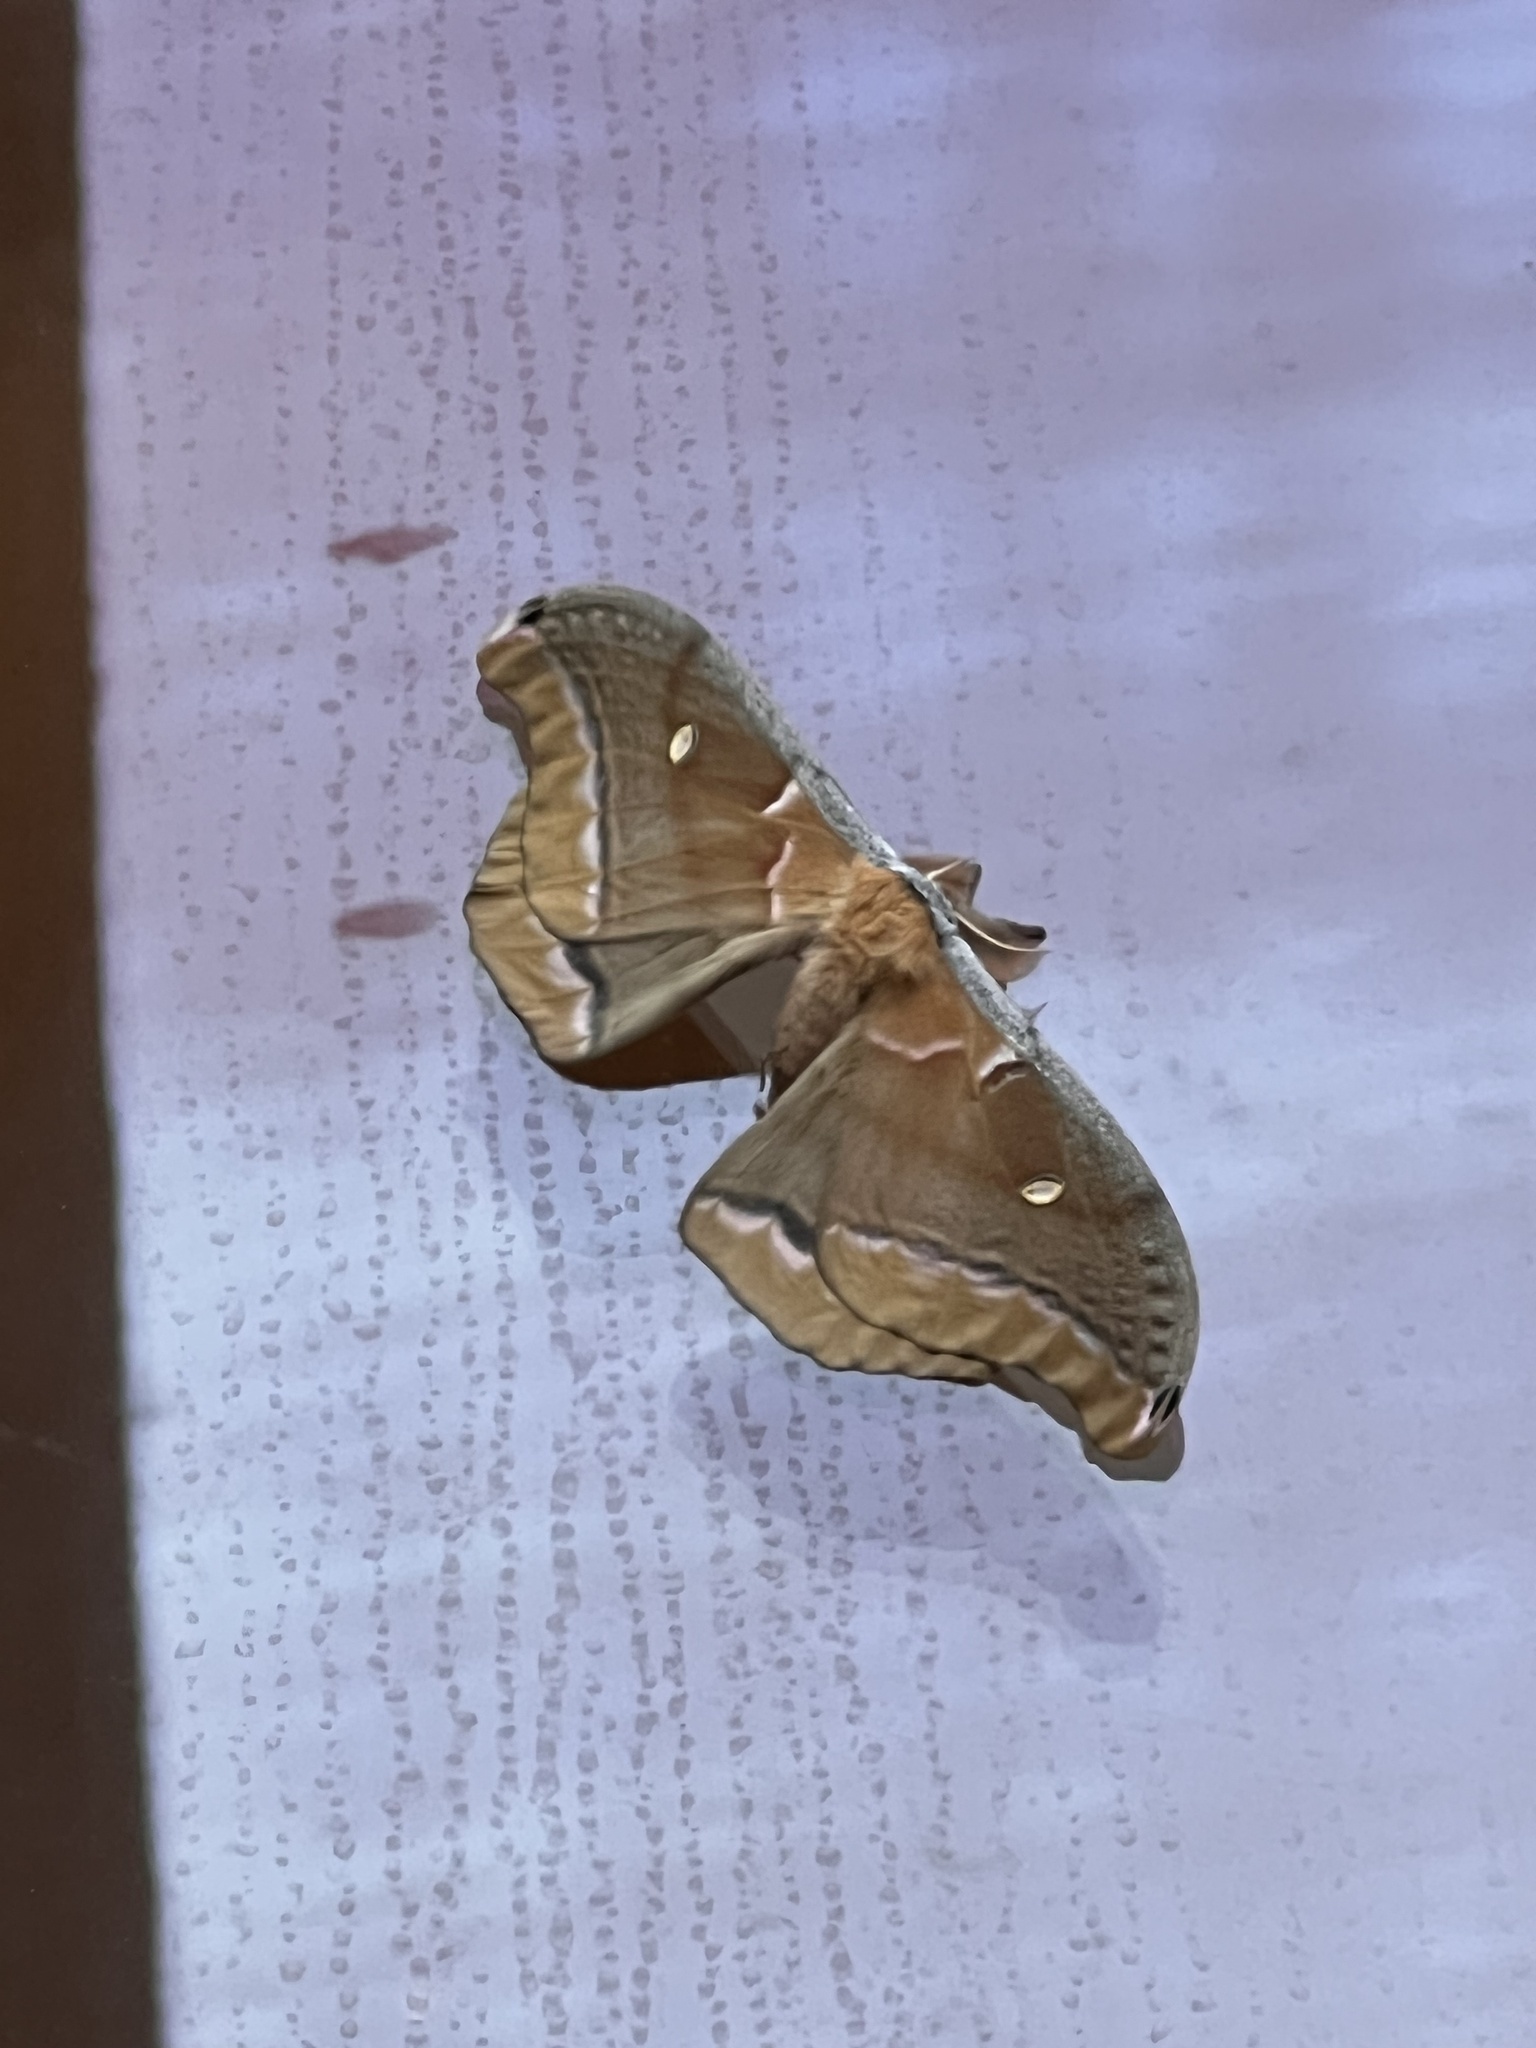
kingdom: Animalia
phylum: Arthropoda
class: Insecta
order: Lepidoptera
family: Saturniidae
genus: Antheraea
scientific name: Antheraea polyphemus
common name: Polyphemus moth
